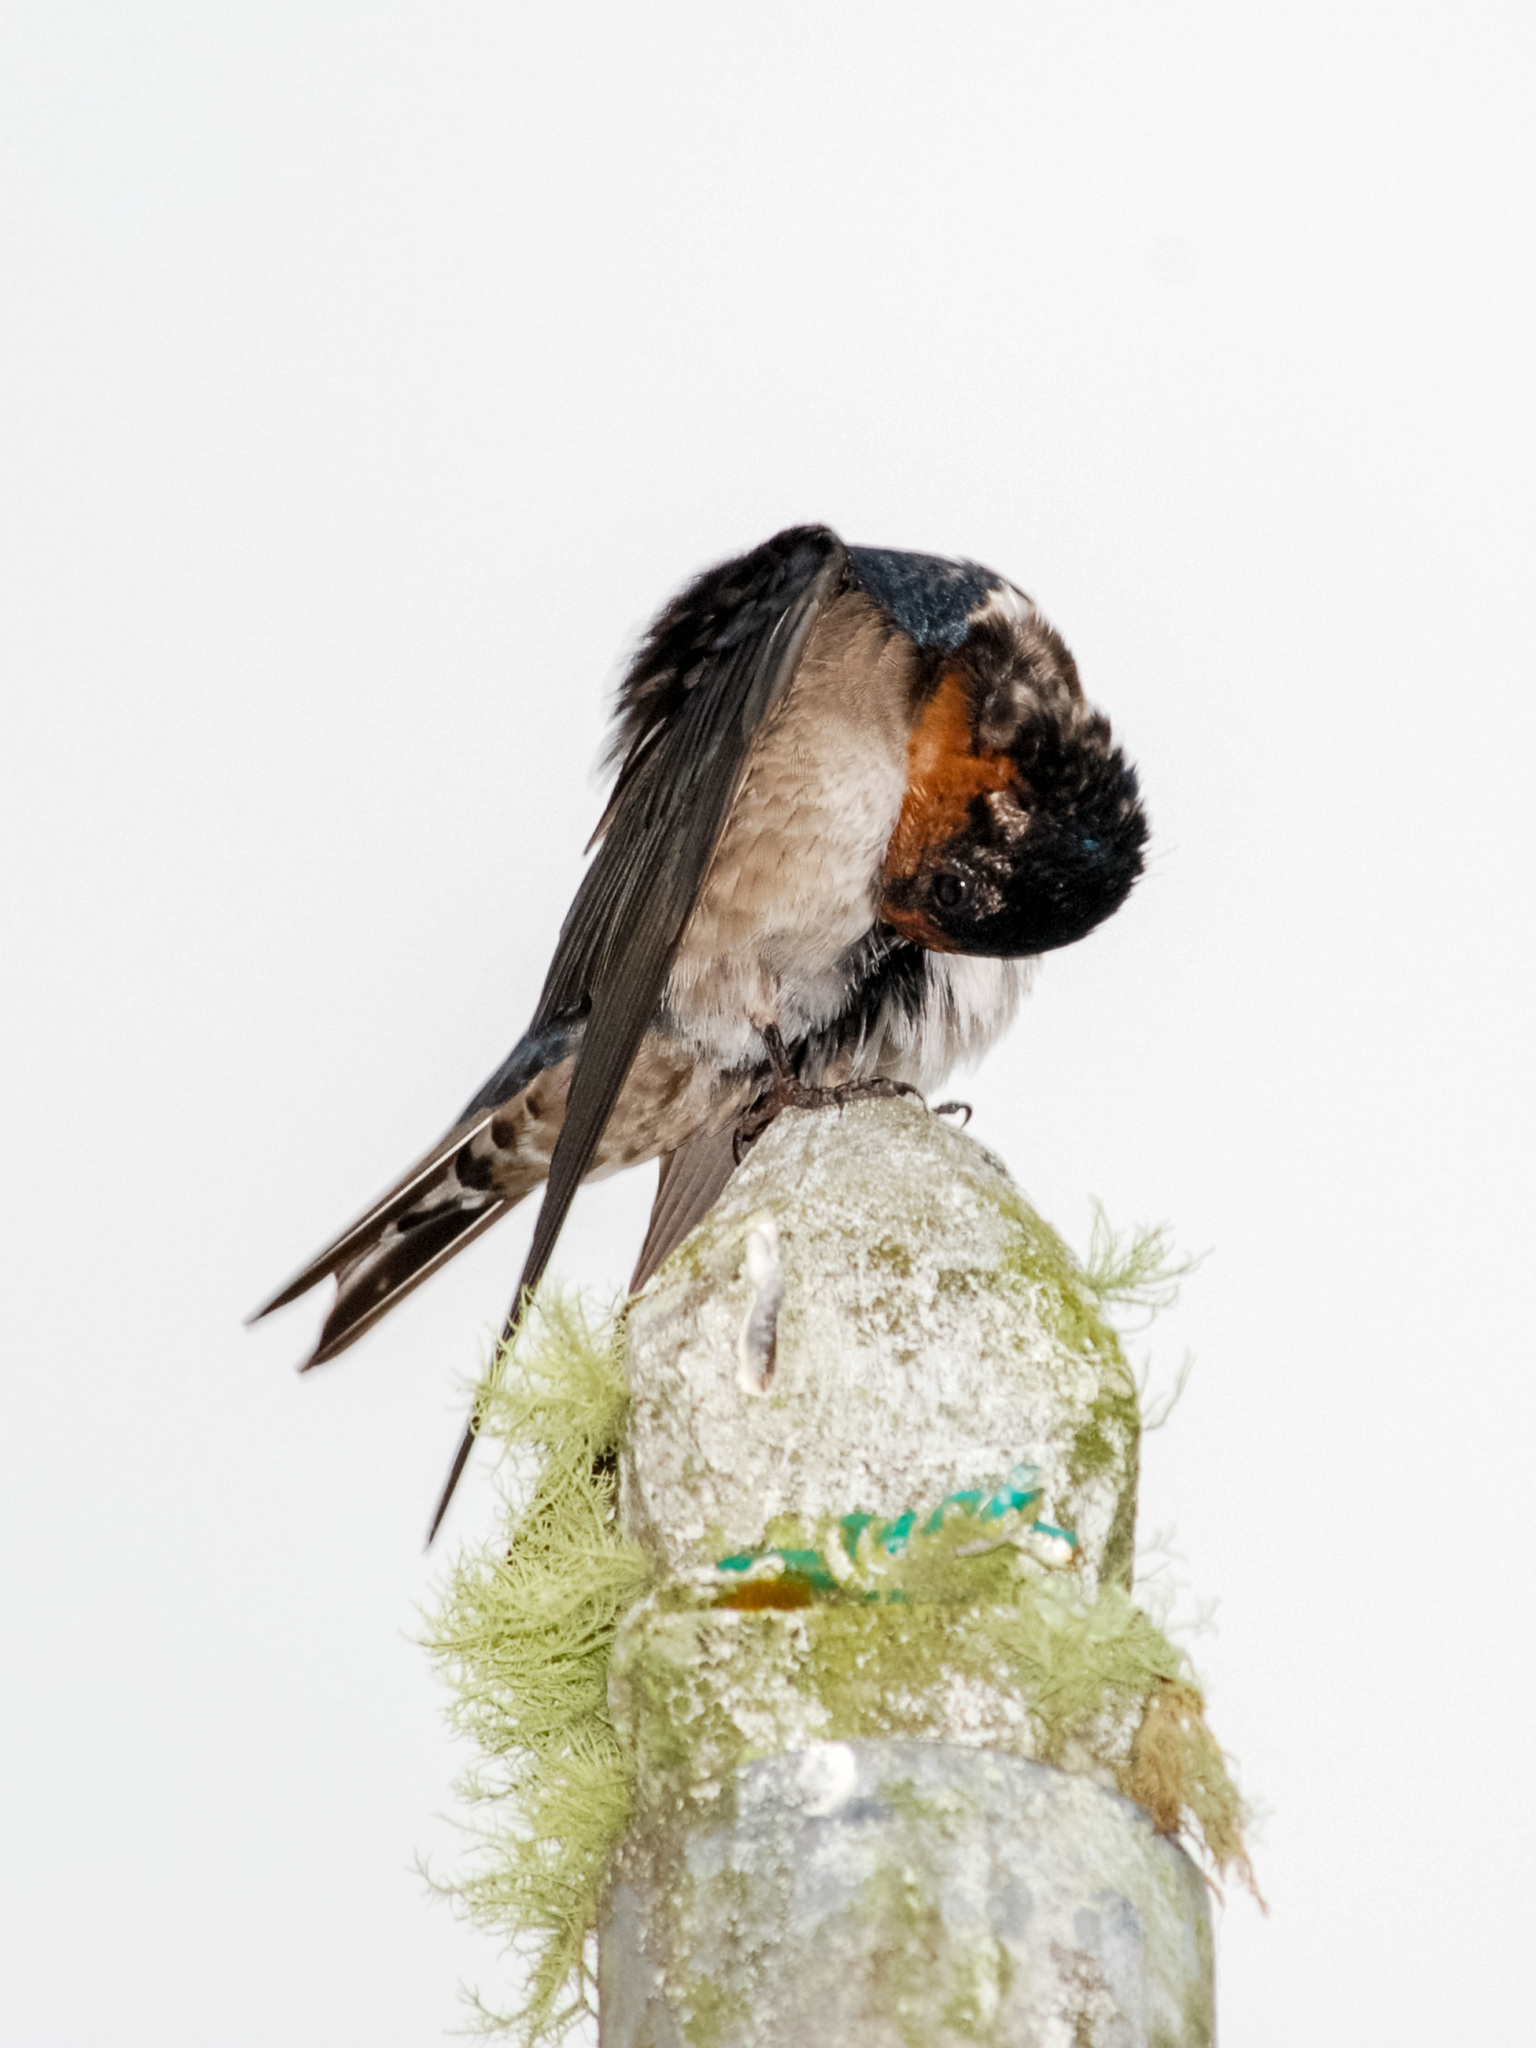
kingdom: Animalia
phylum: Chordata
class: Aves
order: Passeriformes
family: Hirundinidae
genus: Hirundo
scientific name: Hirundo tahitica
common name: Pacific swallow
